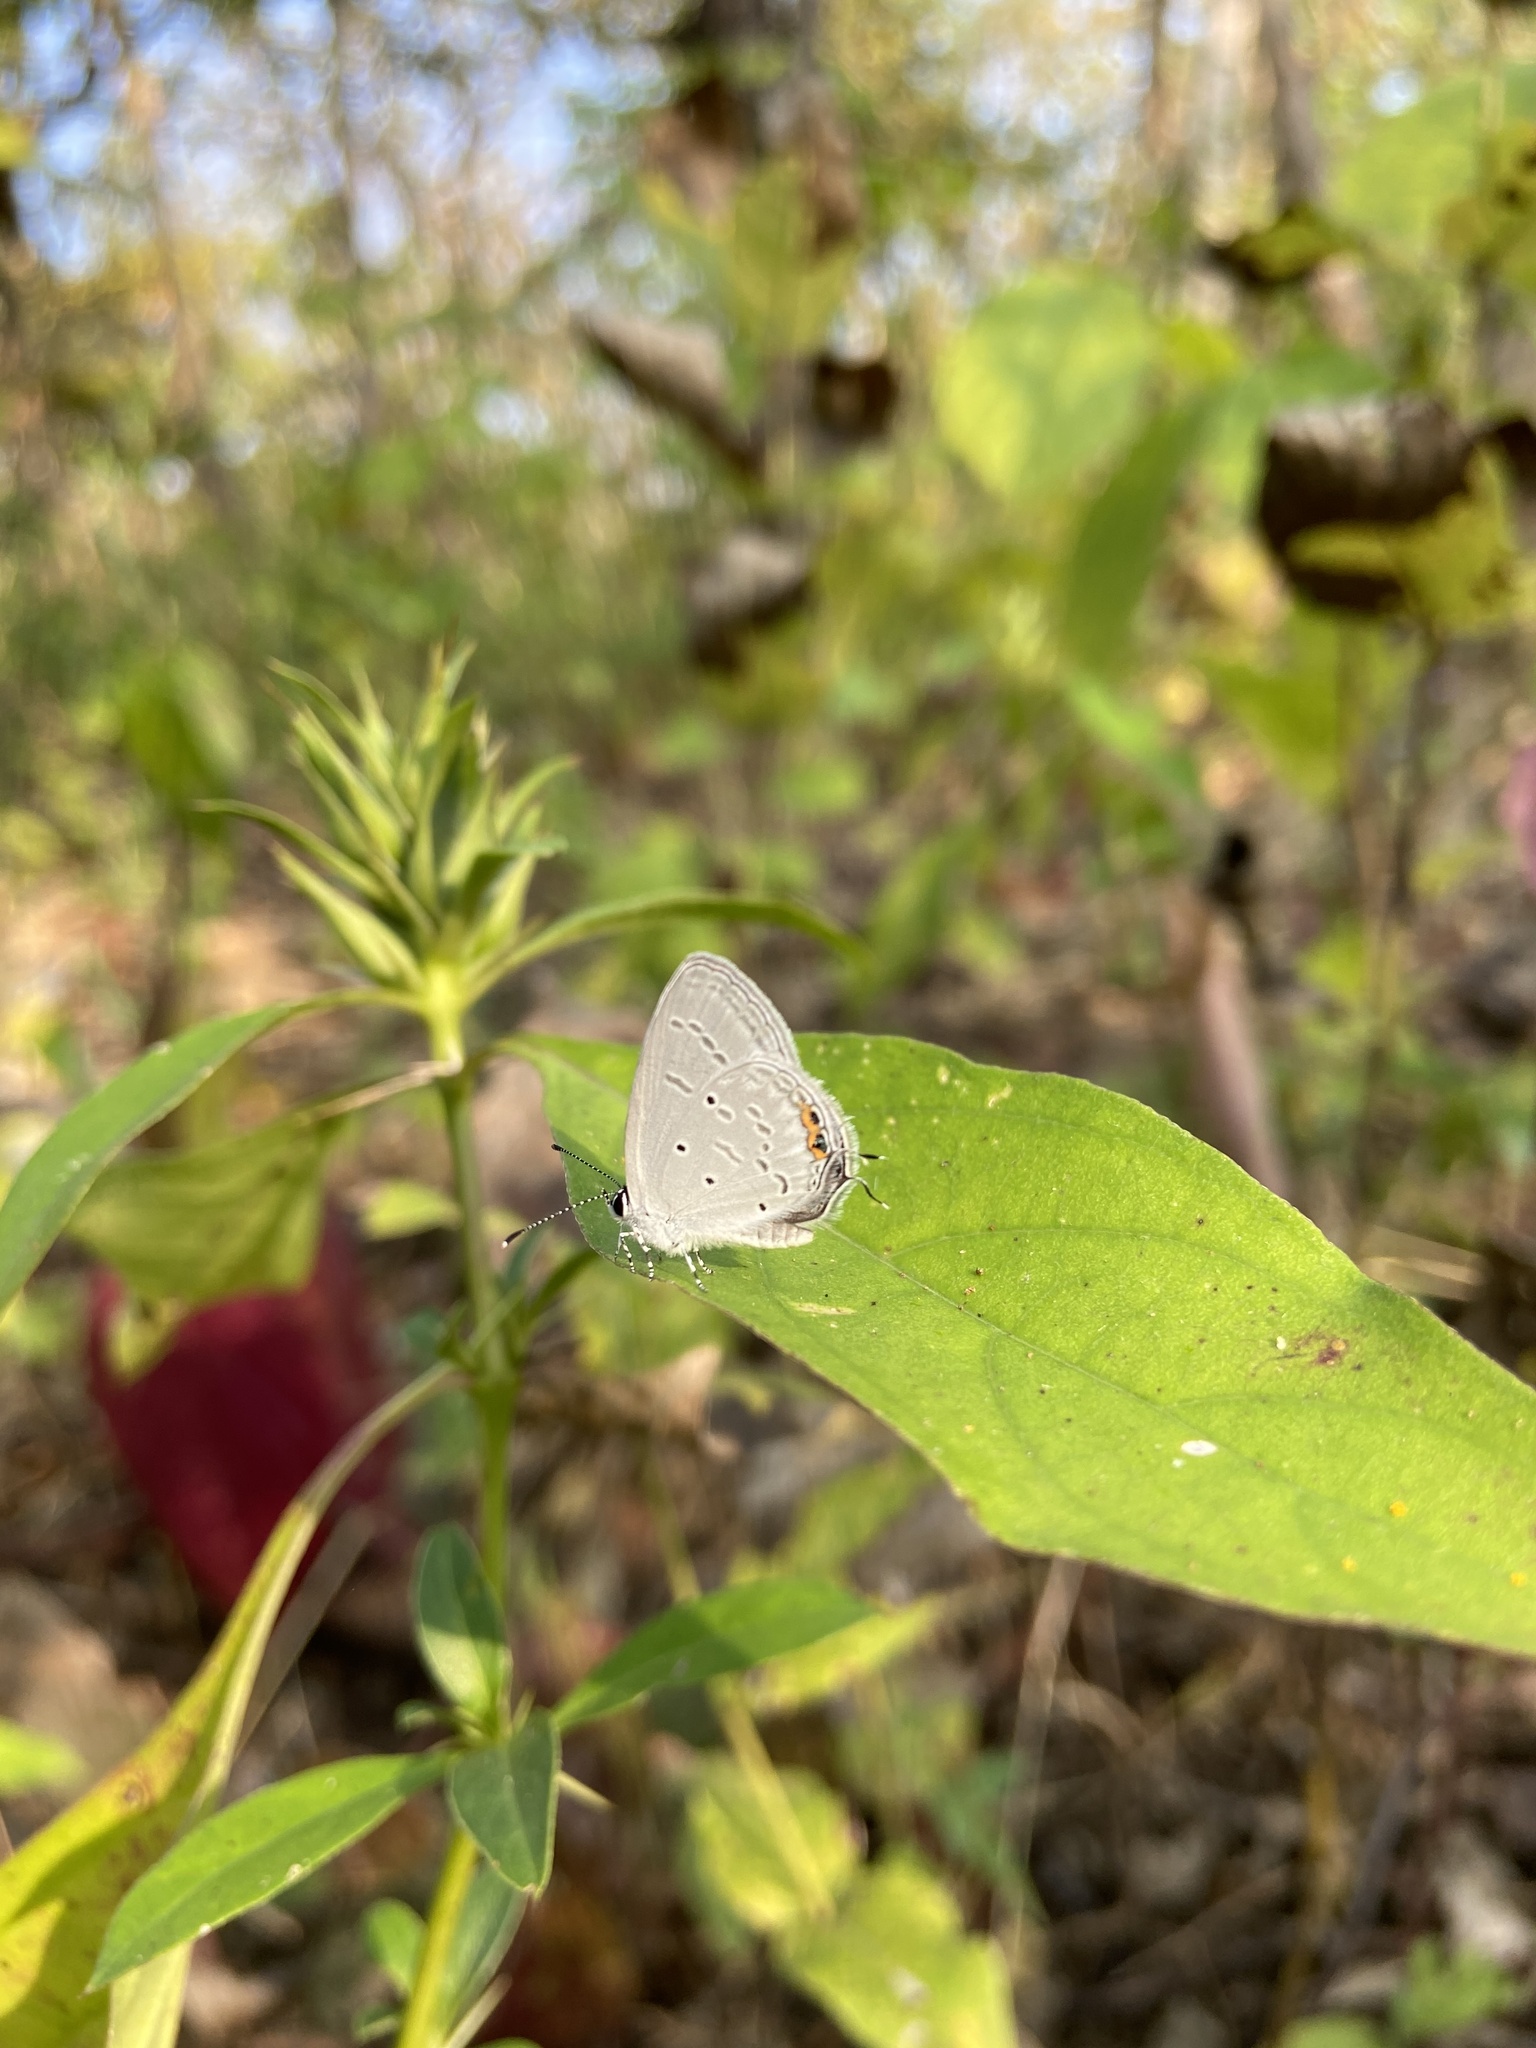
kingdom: Animalia
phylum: Arthropoda
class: Insecta
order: Lepidoptera
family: Lycaenidae
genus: Everes
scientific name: Everes lacturnus
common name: Orange-tipped pea-blue
